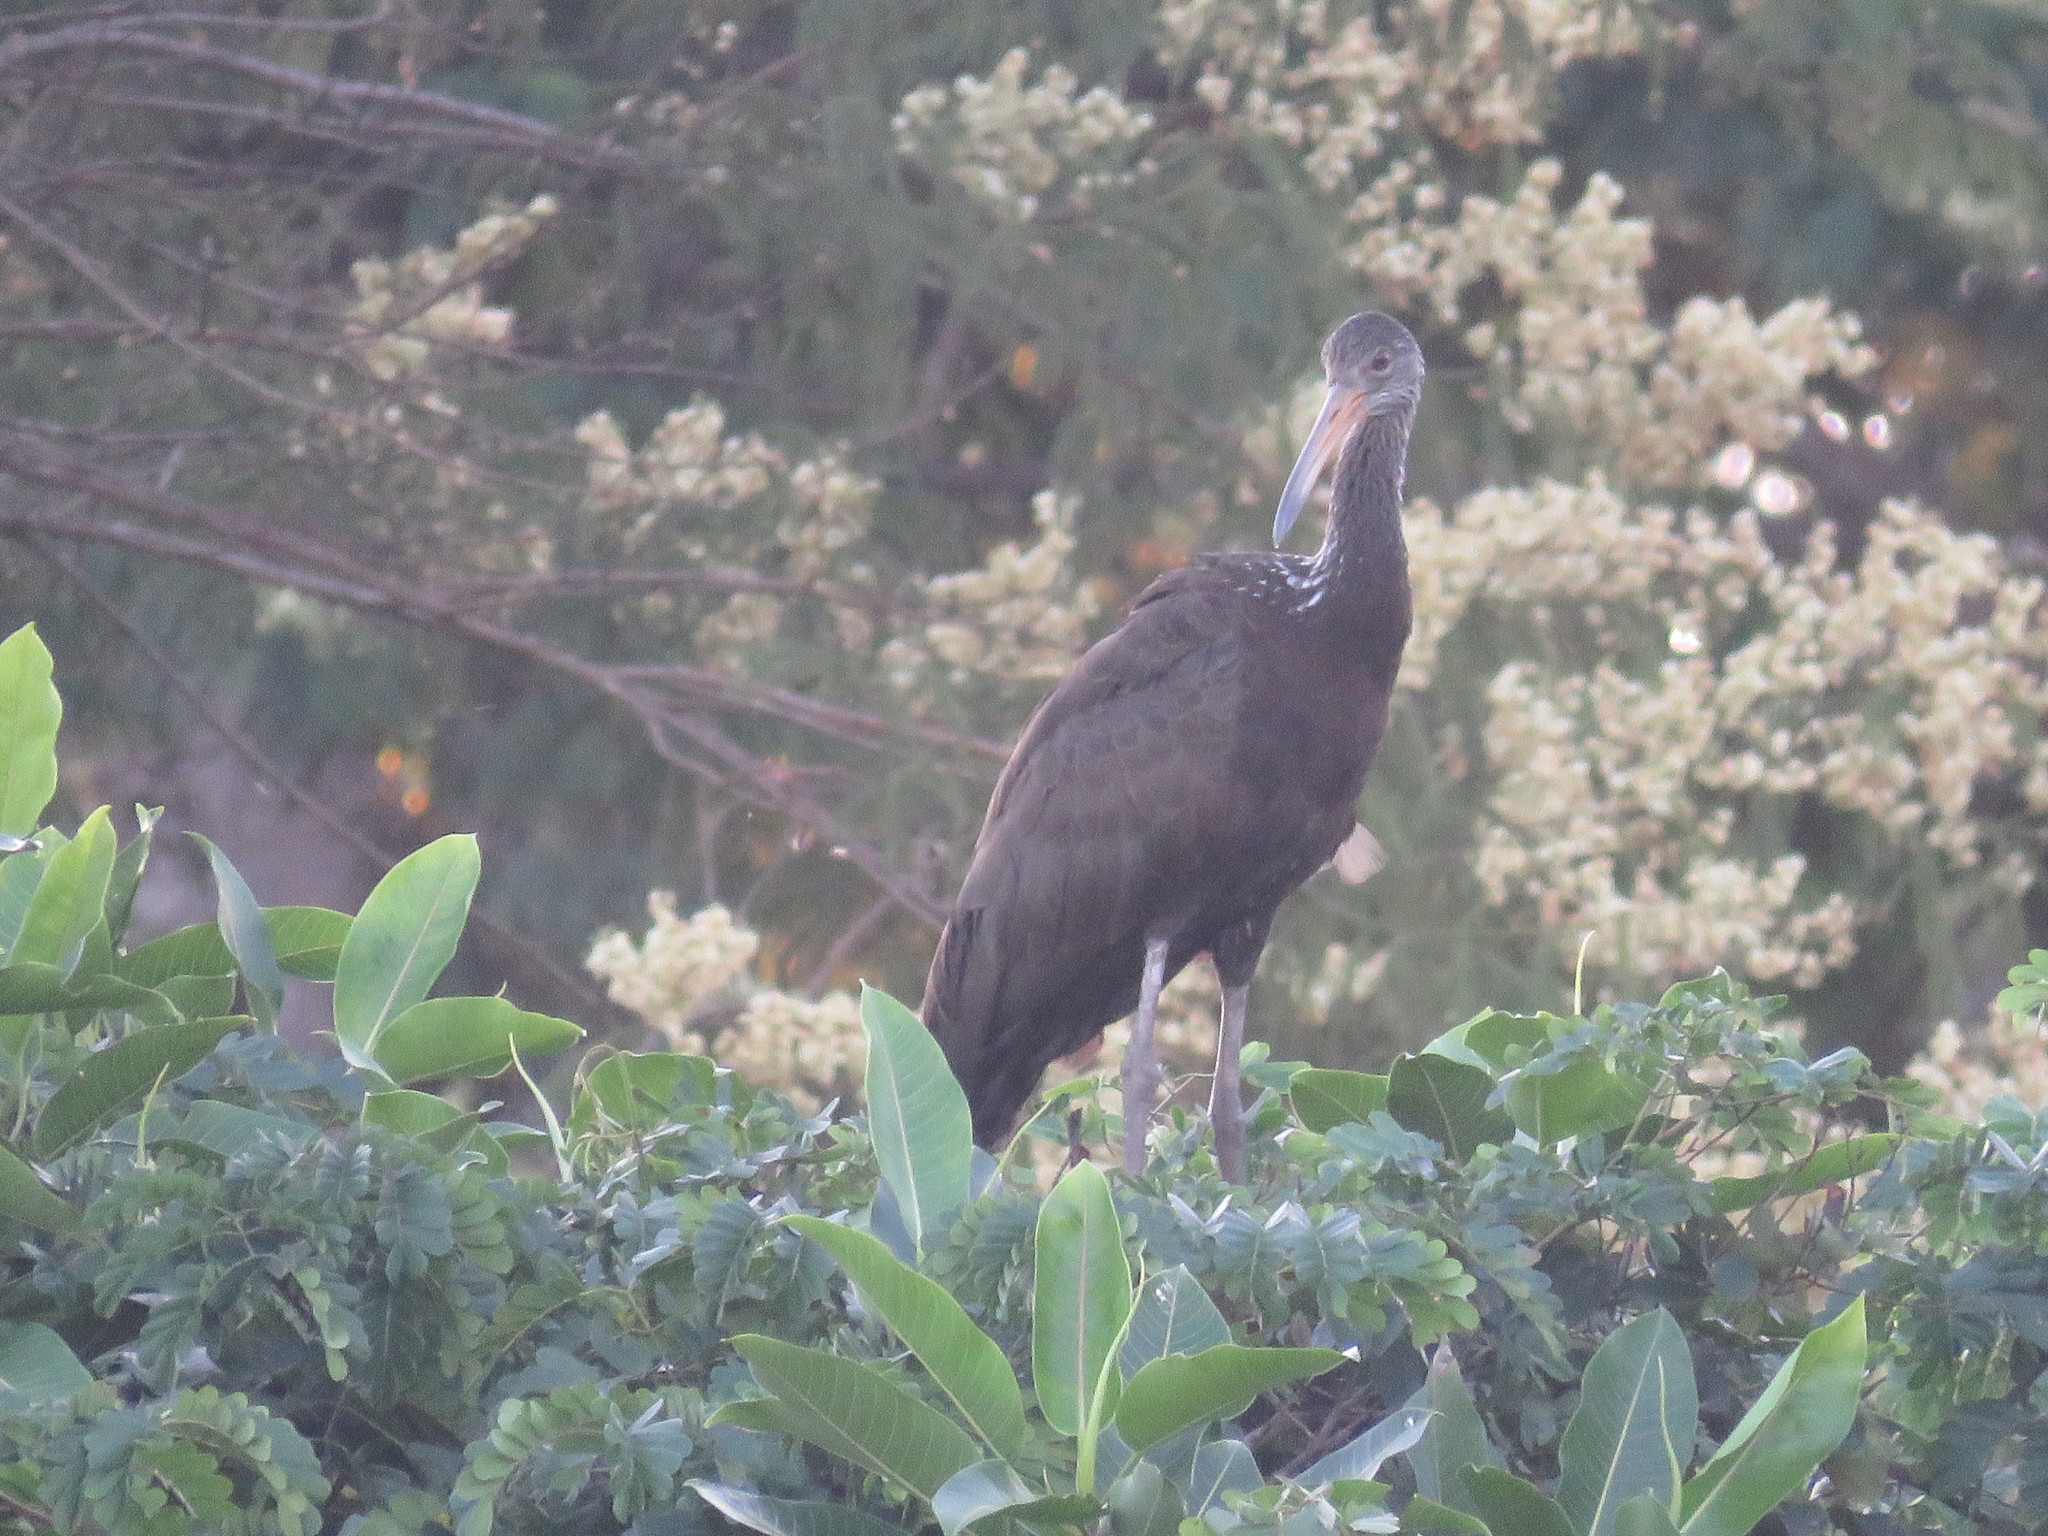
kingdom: Animalia
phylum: Chordata
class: Aves
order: Gruiformes
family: Aramidae
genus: Aramus
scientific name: Aramus guarauna
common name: Limpkin
